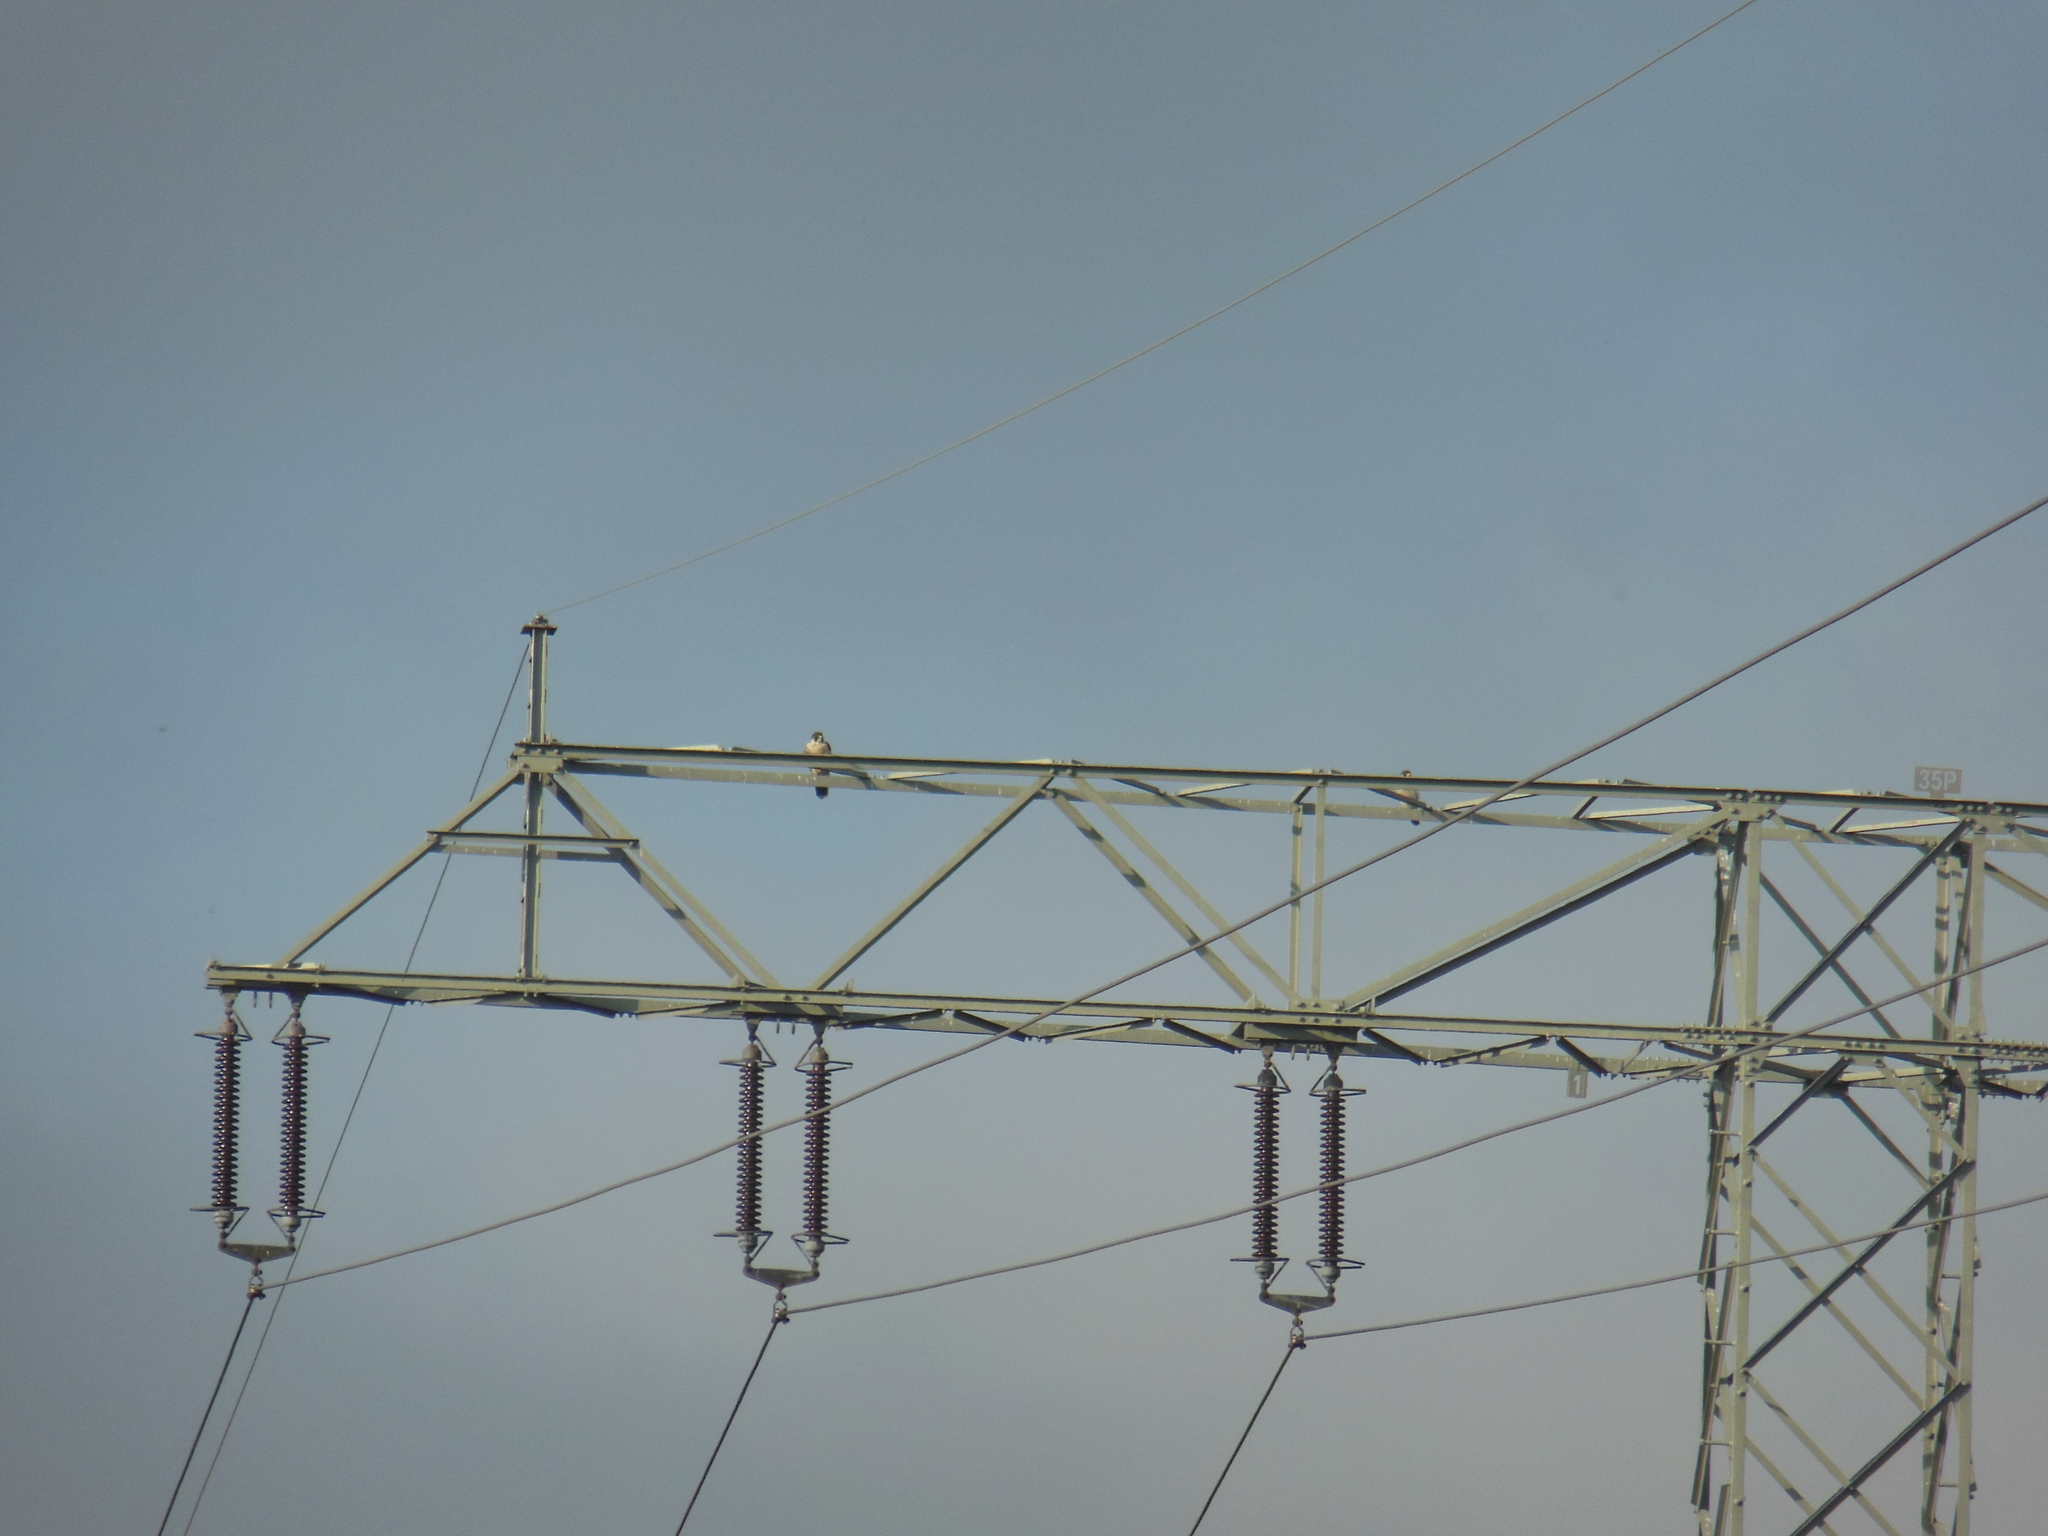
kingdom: Animalia
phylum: Chordata
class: Aves
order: Falconiformes
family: Falconidae
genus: Falco
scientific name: Falco peregrinus
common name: Peregrine falcon
